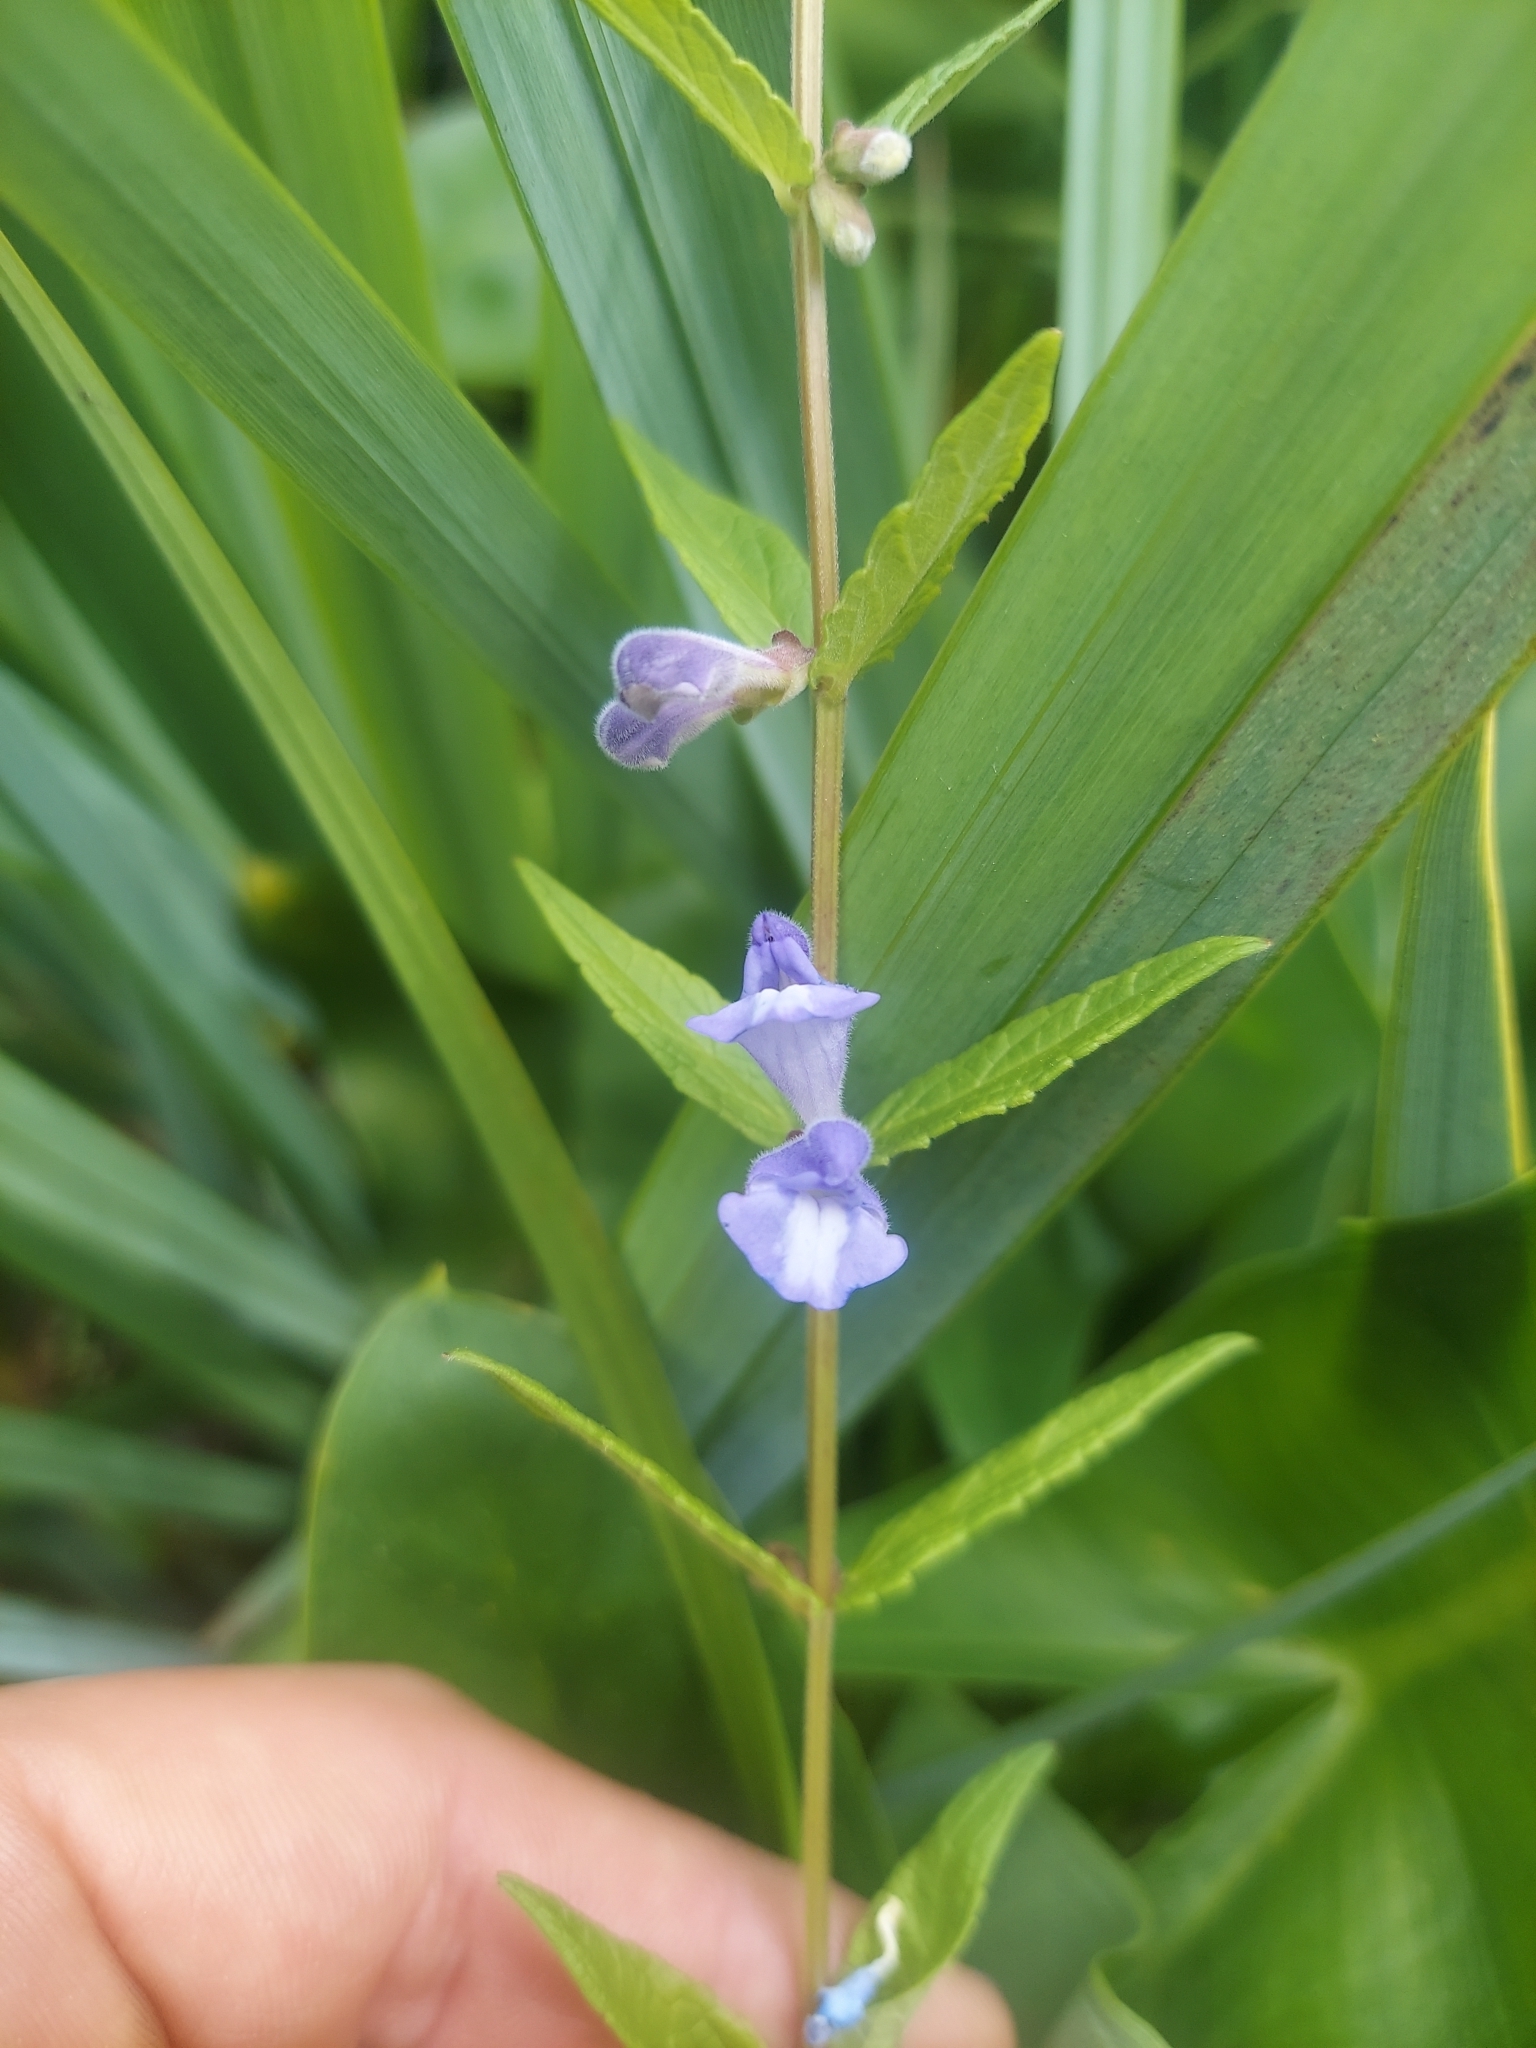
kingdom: Plantae
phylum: Tracheophyta
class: Magnoliopsida
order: Lamiales
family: Lamiaceae
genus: Scutellaria
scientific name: Scutellaria galericulata
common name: Skullcap
